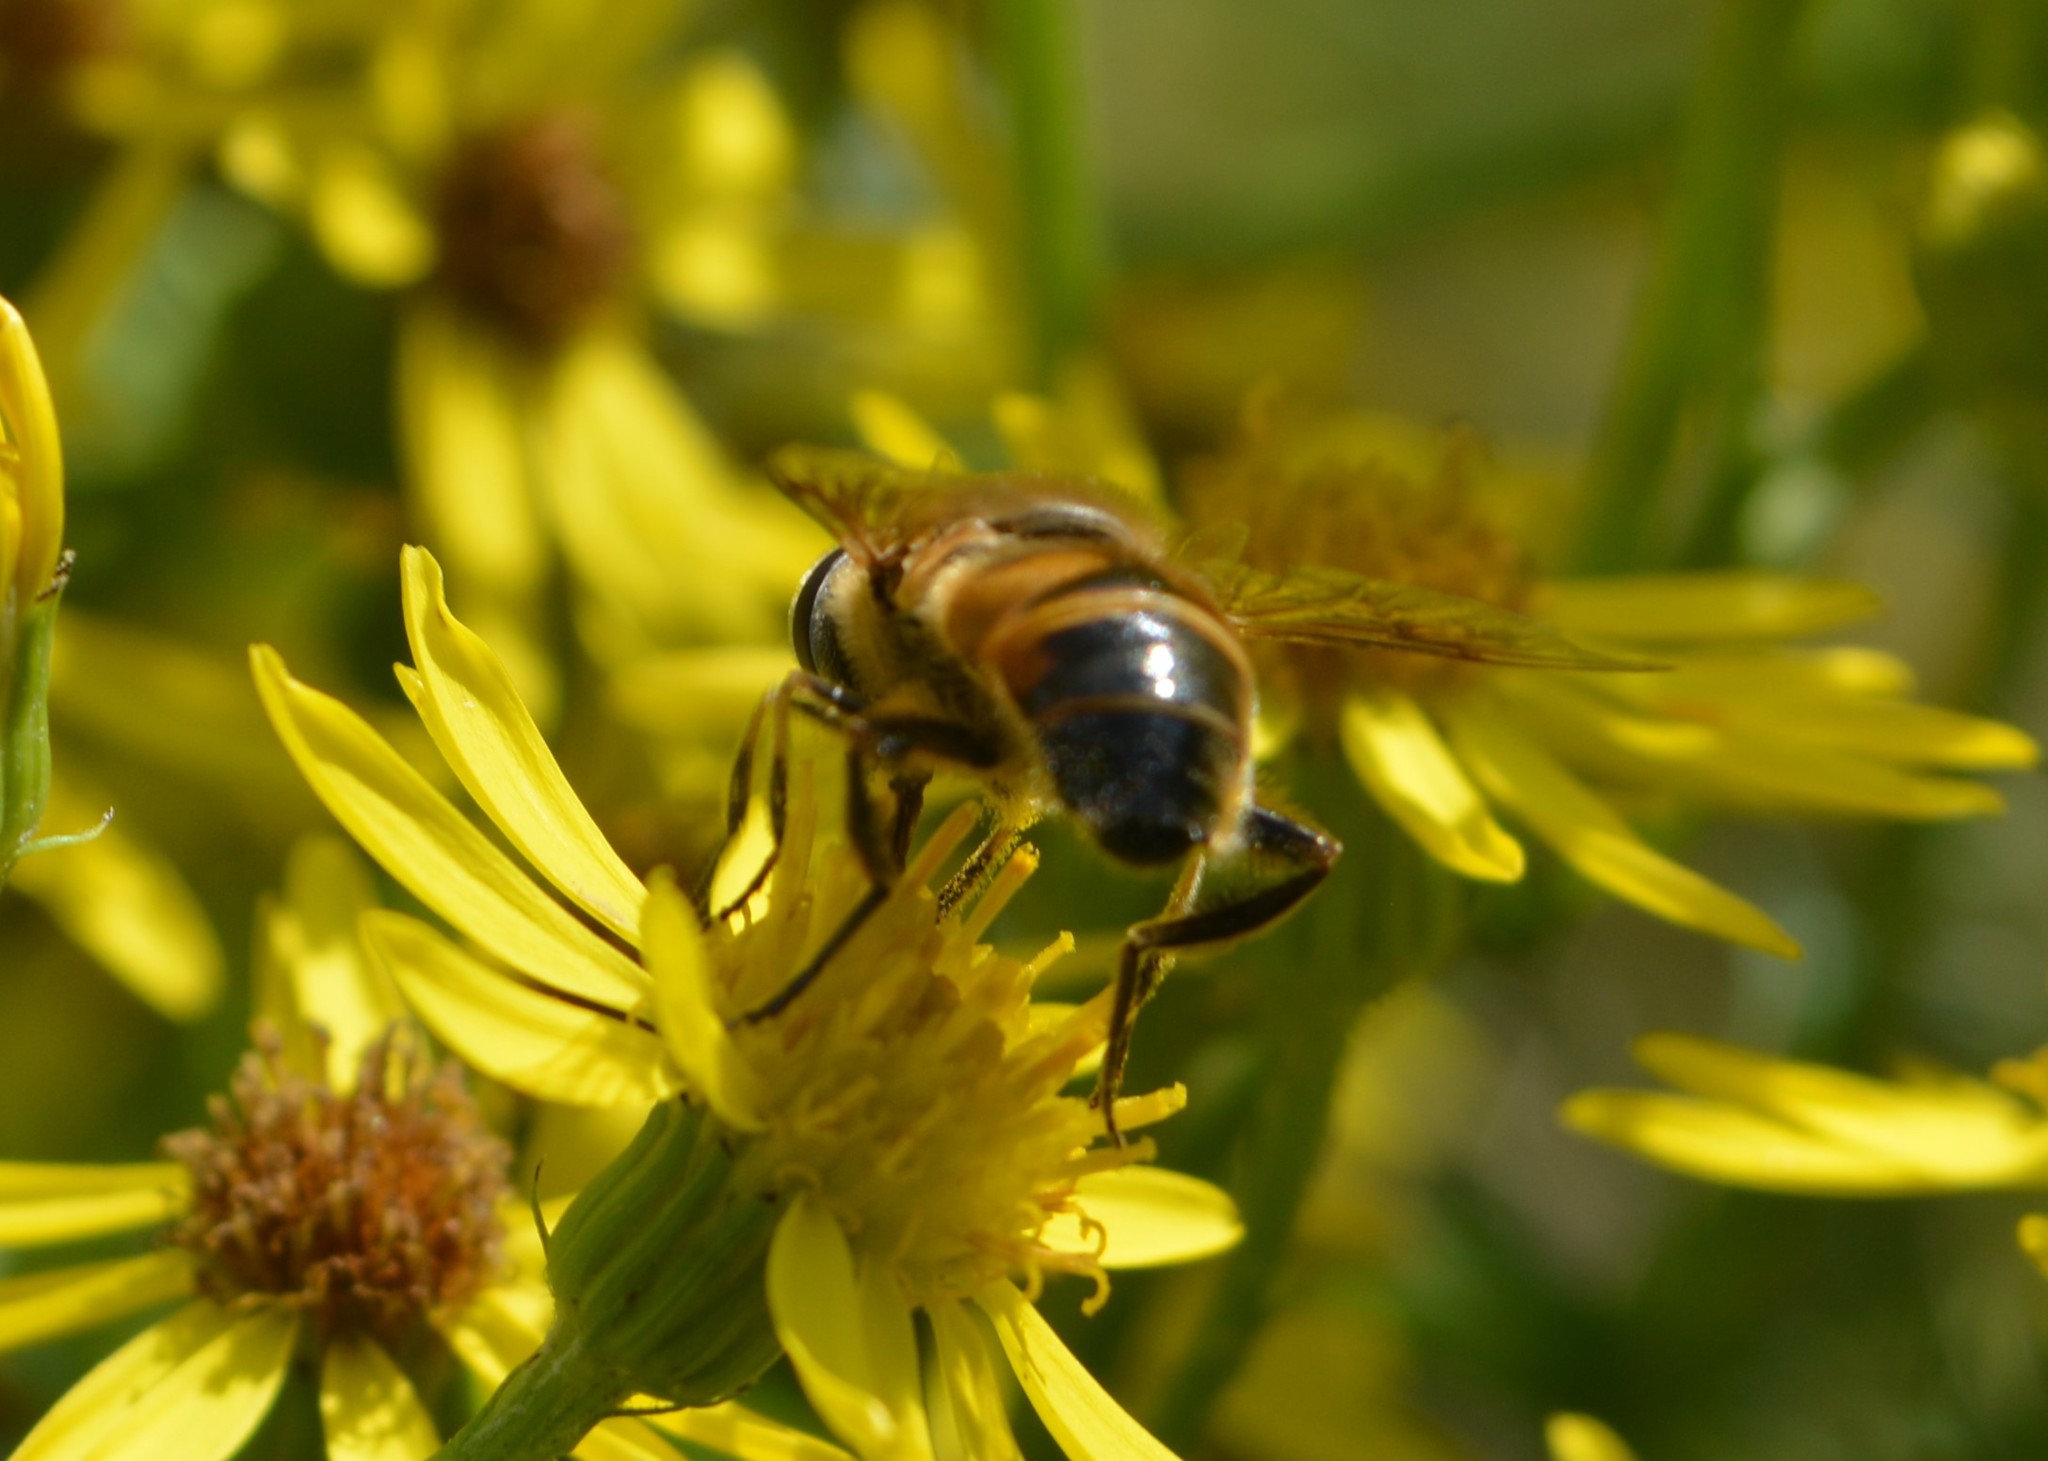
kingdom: Animalia
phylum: Arthropoda
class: Insecta
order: Diptera
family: Syrphidae
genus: Eristalis
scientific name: Eristalis tenax
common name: Drone fly
